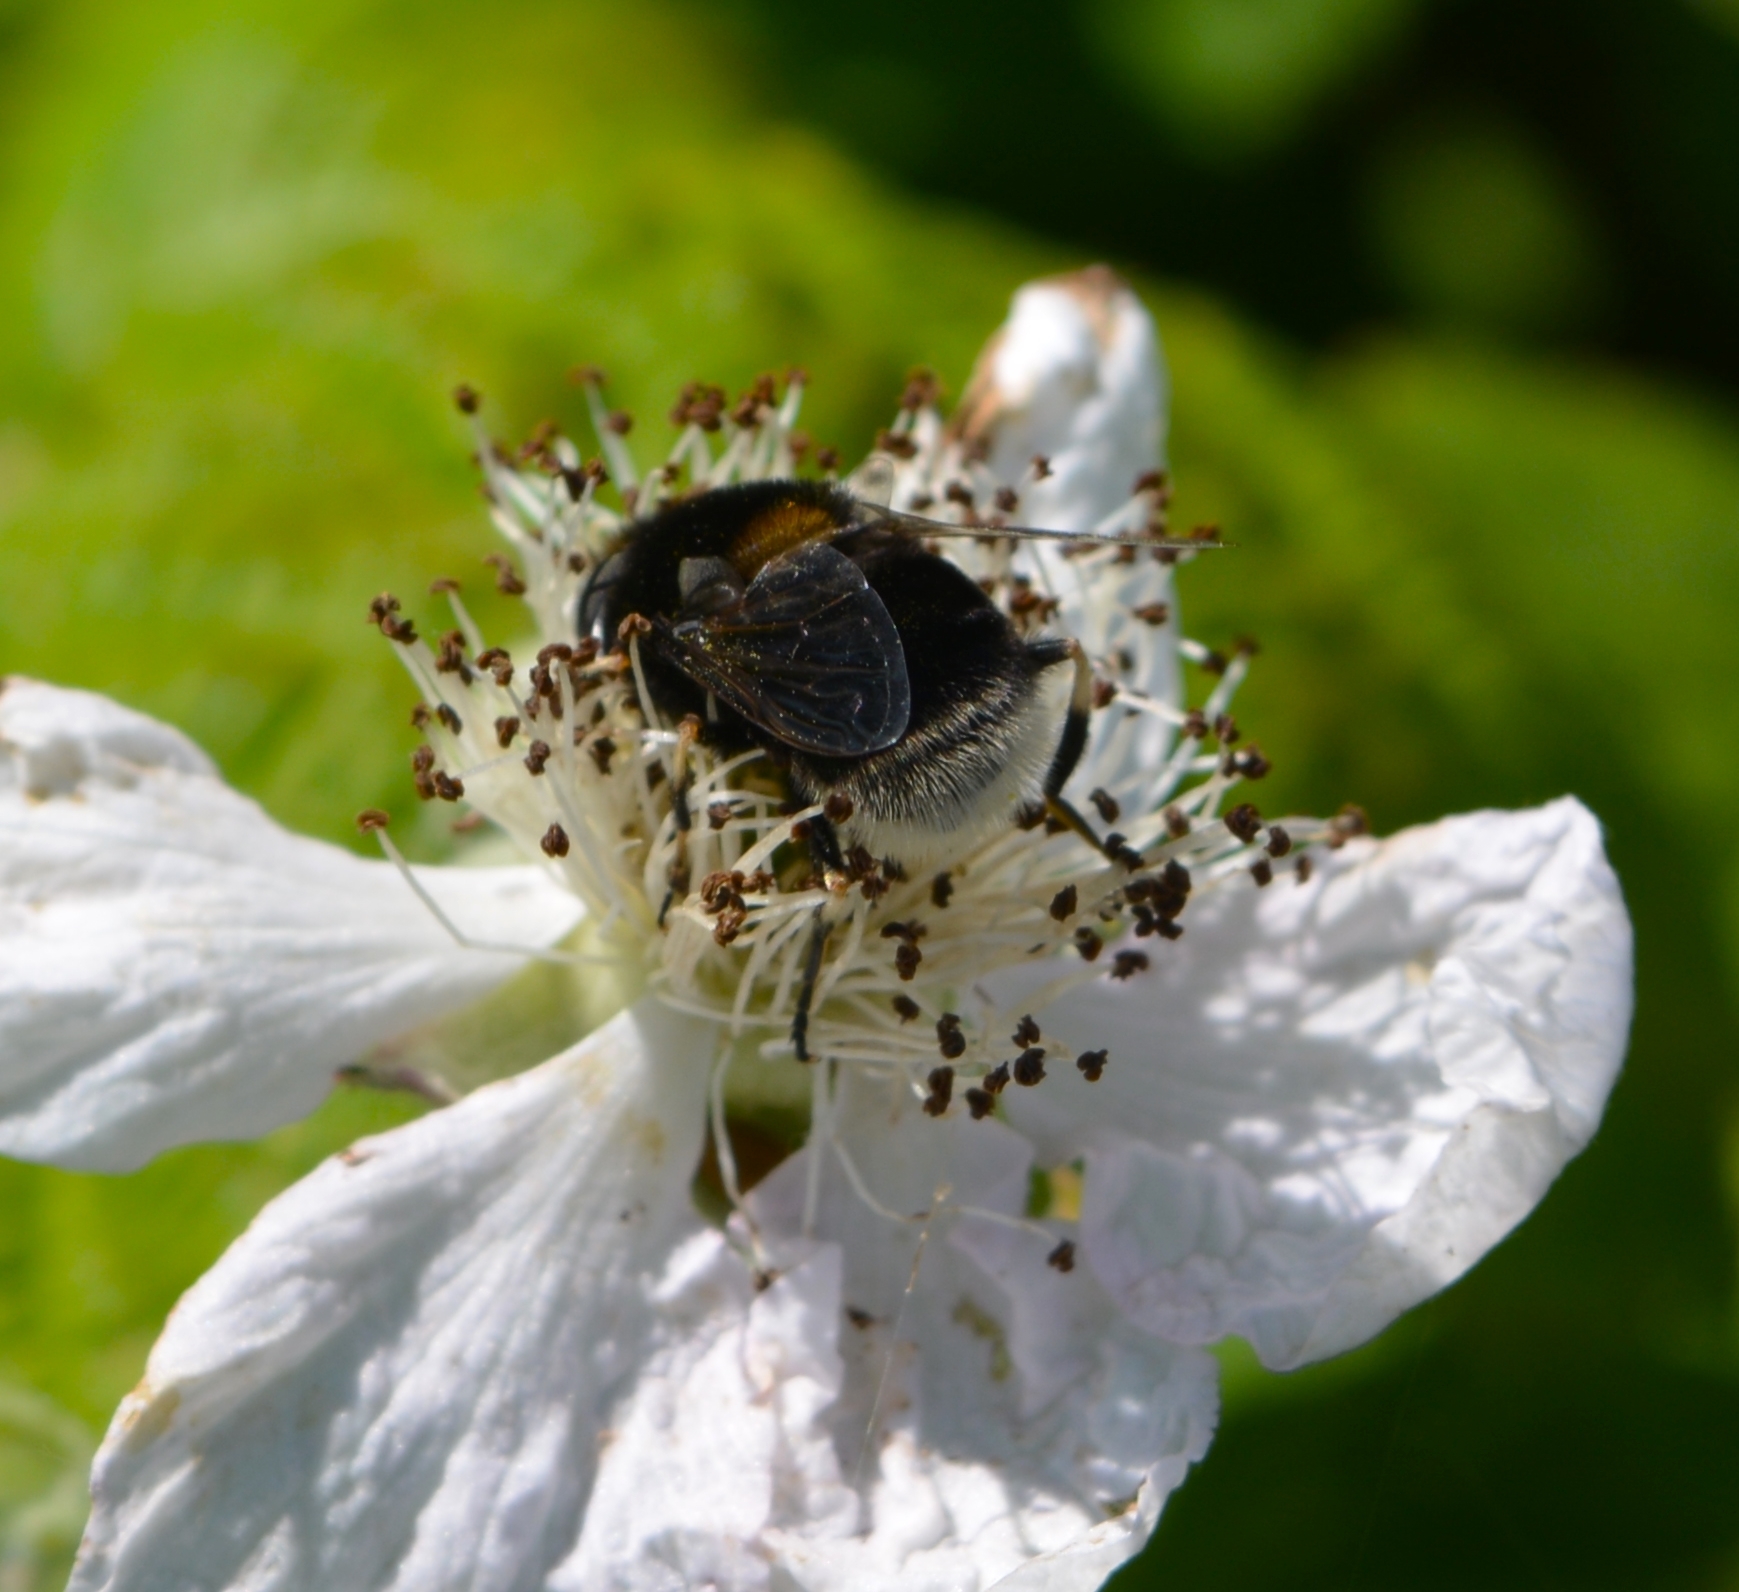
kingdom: Animalia
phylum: Arthropoda
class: Insecta
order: Diptera
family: Syrphidae
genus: Eristalis
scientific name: Eristalis intricaria
